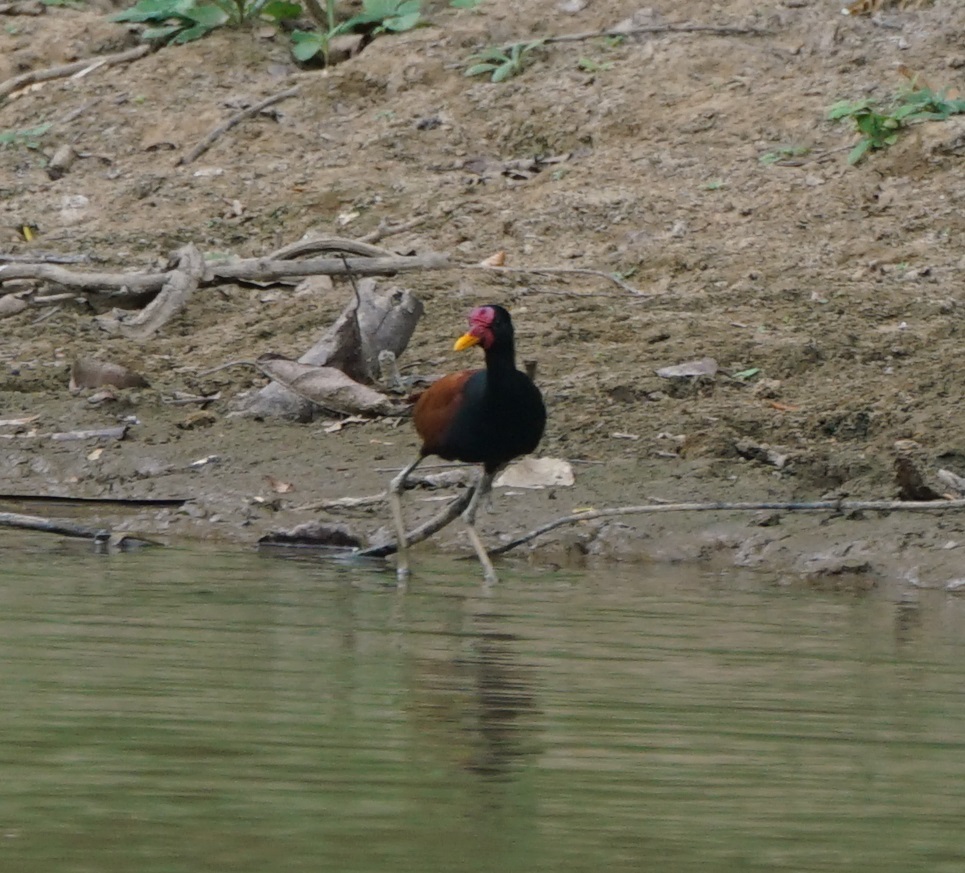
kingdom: Animalia
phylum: Chordata
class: Aves
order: Charadriiformes
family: Jacanidae
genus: Jacana
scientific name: Jacana jacana
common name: Wattled jacana
